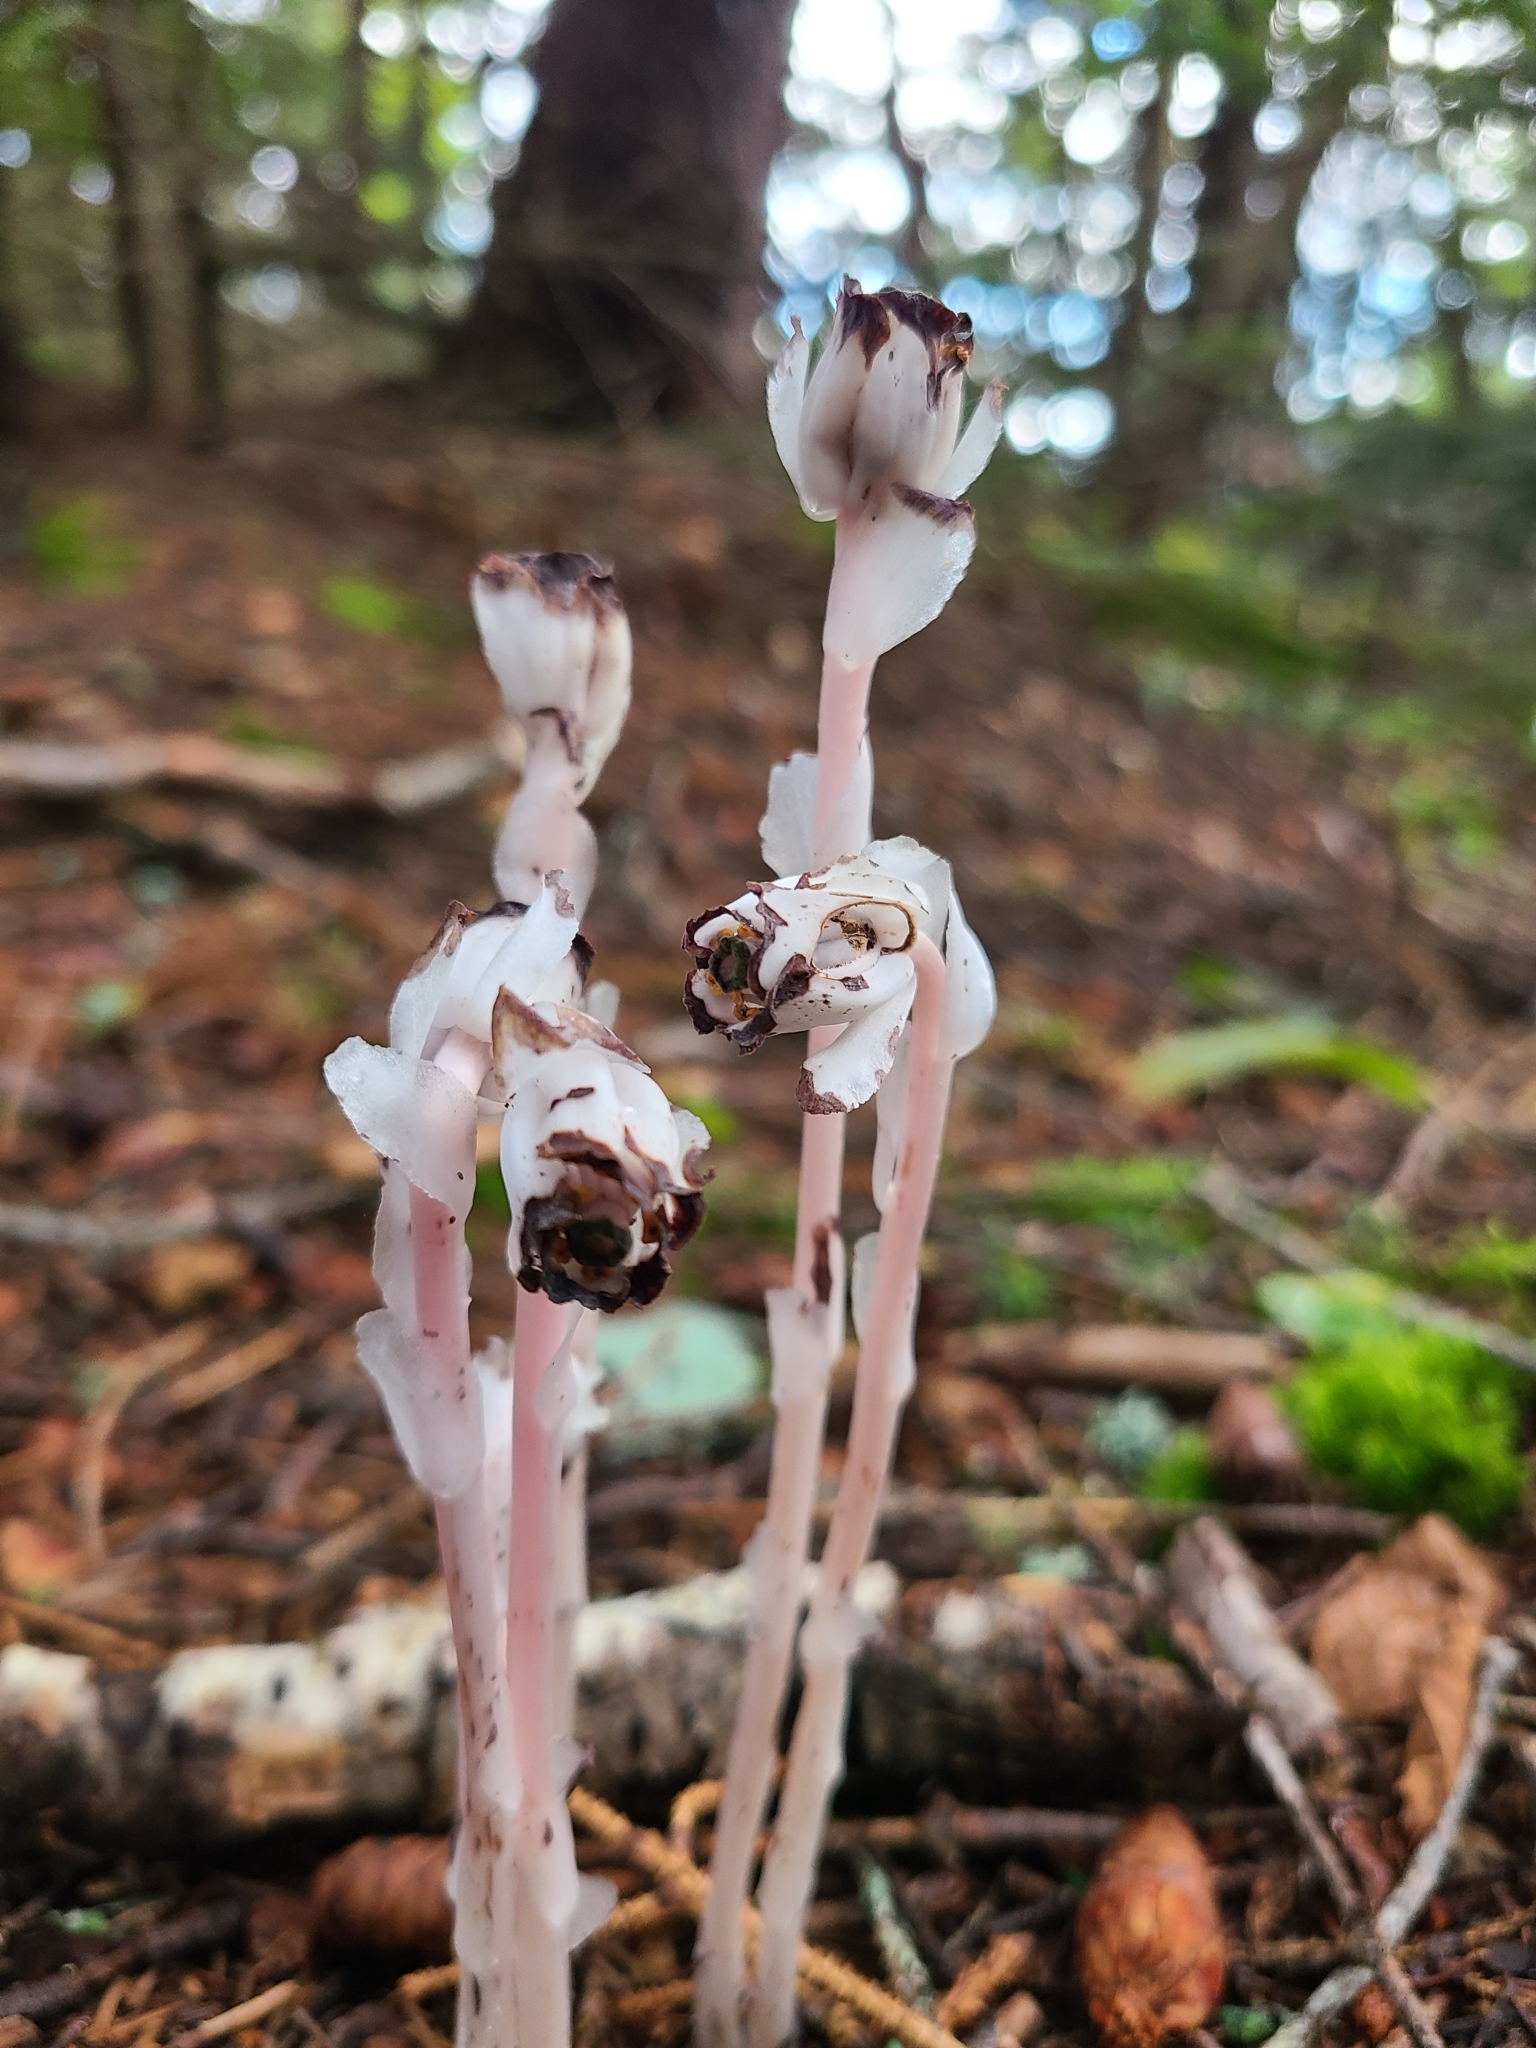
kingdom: Plantae
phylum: Tracheophyta
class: Magnoliopsida
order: Ericales
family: Ericaceae
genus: Monotropa
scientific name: Monotropa uniflora
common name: Convulsion root
